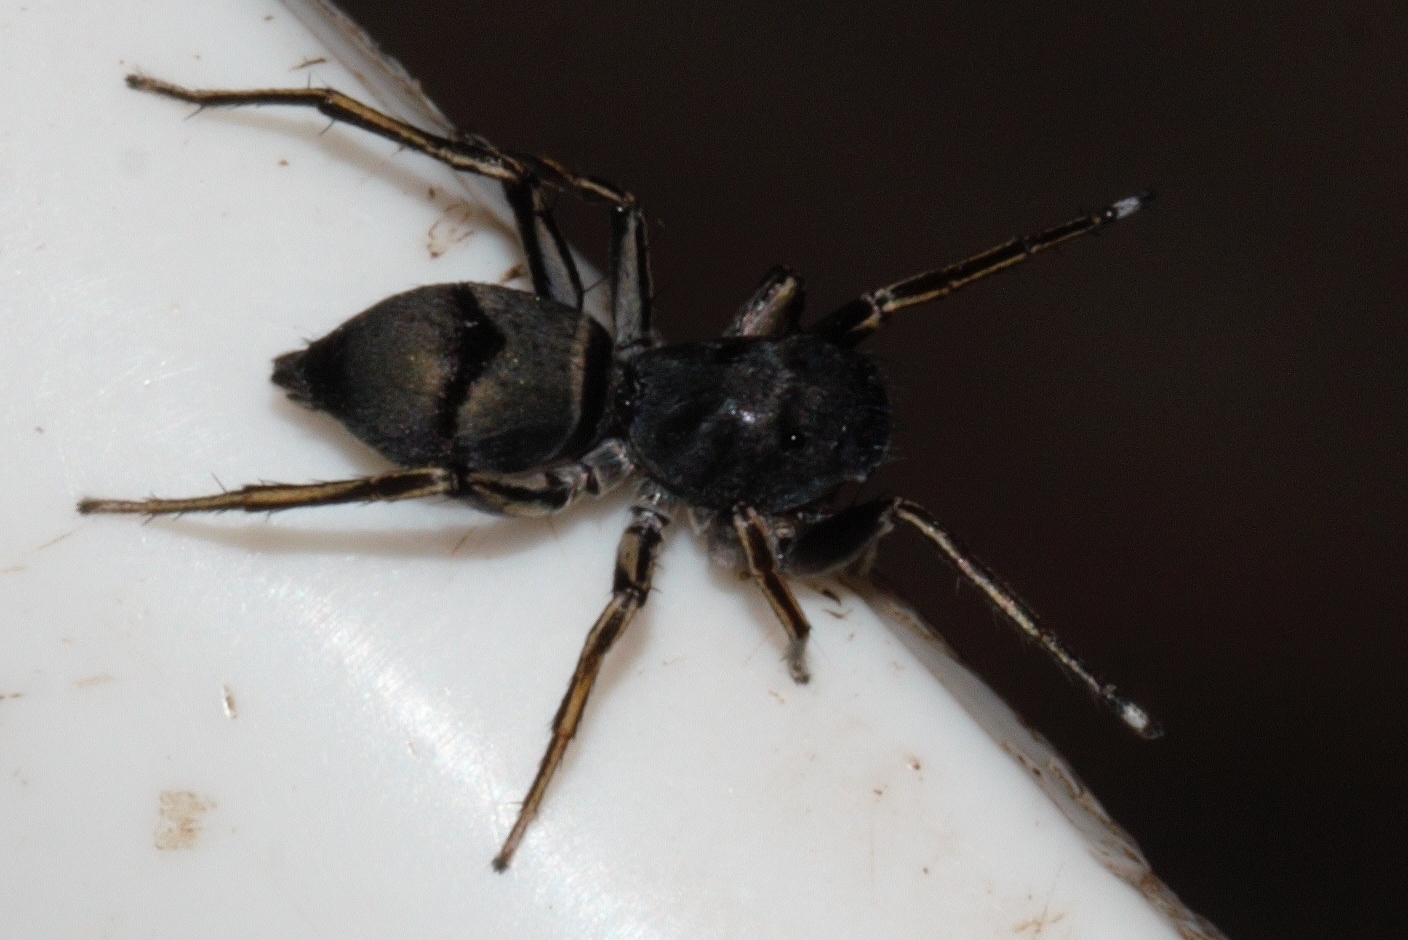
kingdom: Animalia
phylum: Arthropoda
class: Arachnida
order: Araneae
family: Salticidae
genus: Mexcala
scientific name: Mexcala elegans
